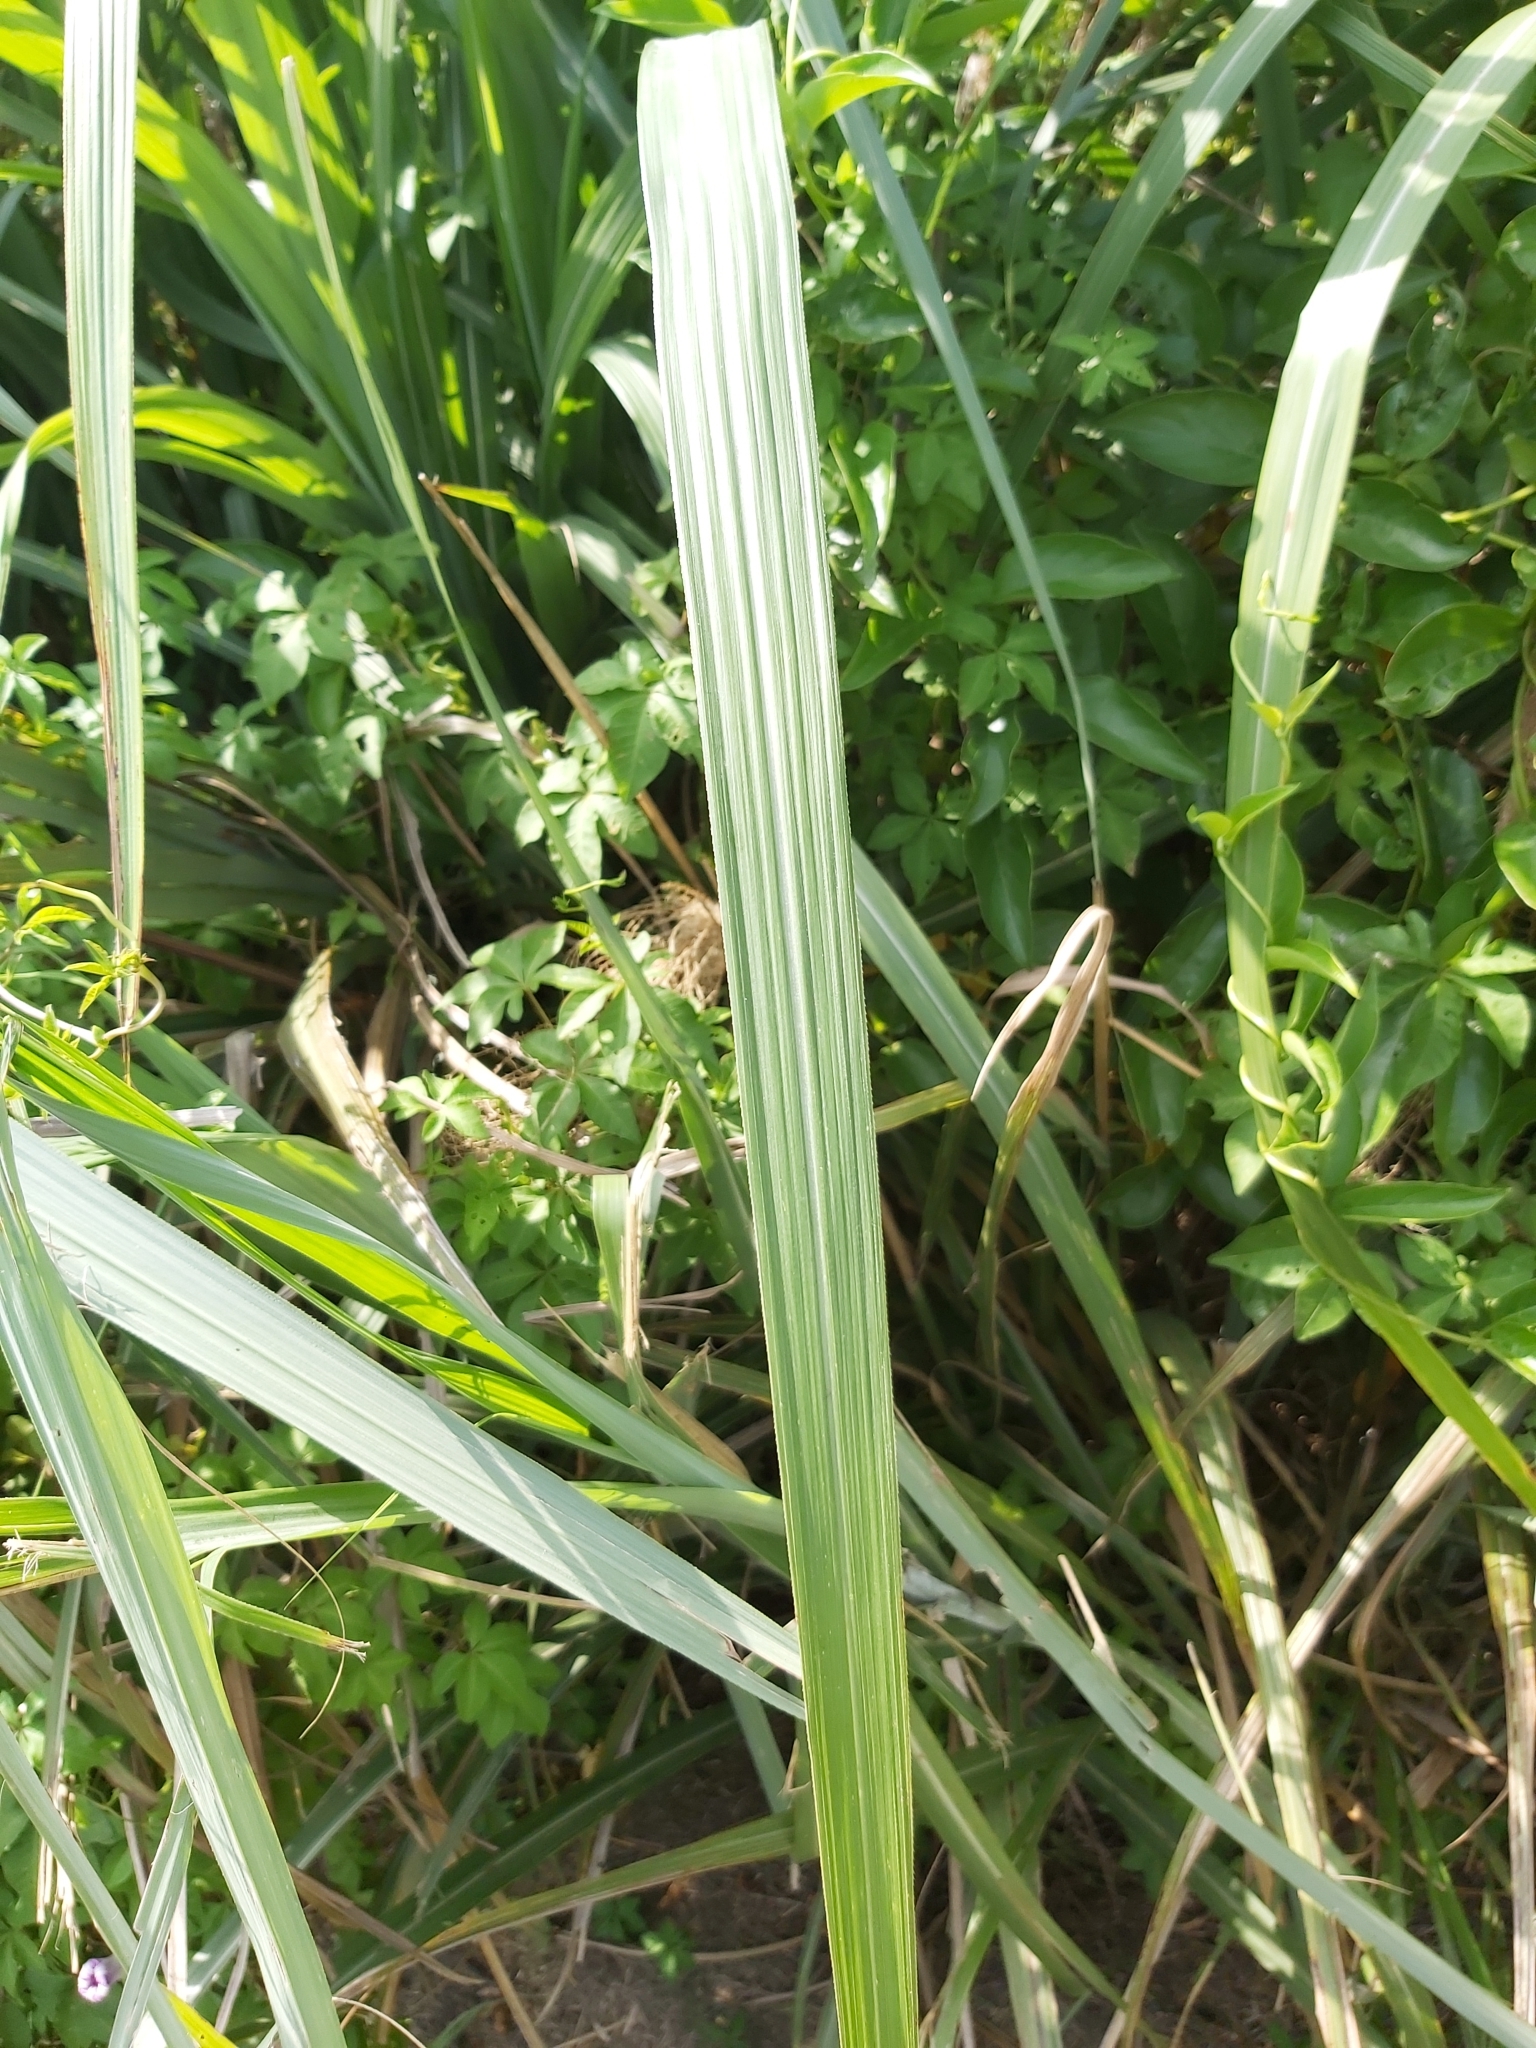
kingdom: Plantae
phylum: Tracheophyta
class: Liliopsida
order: Poales
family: Poaceae
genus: Miscanthus
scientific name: Miscanthus sinensis
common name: Chinese silvergrass
